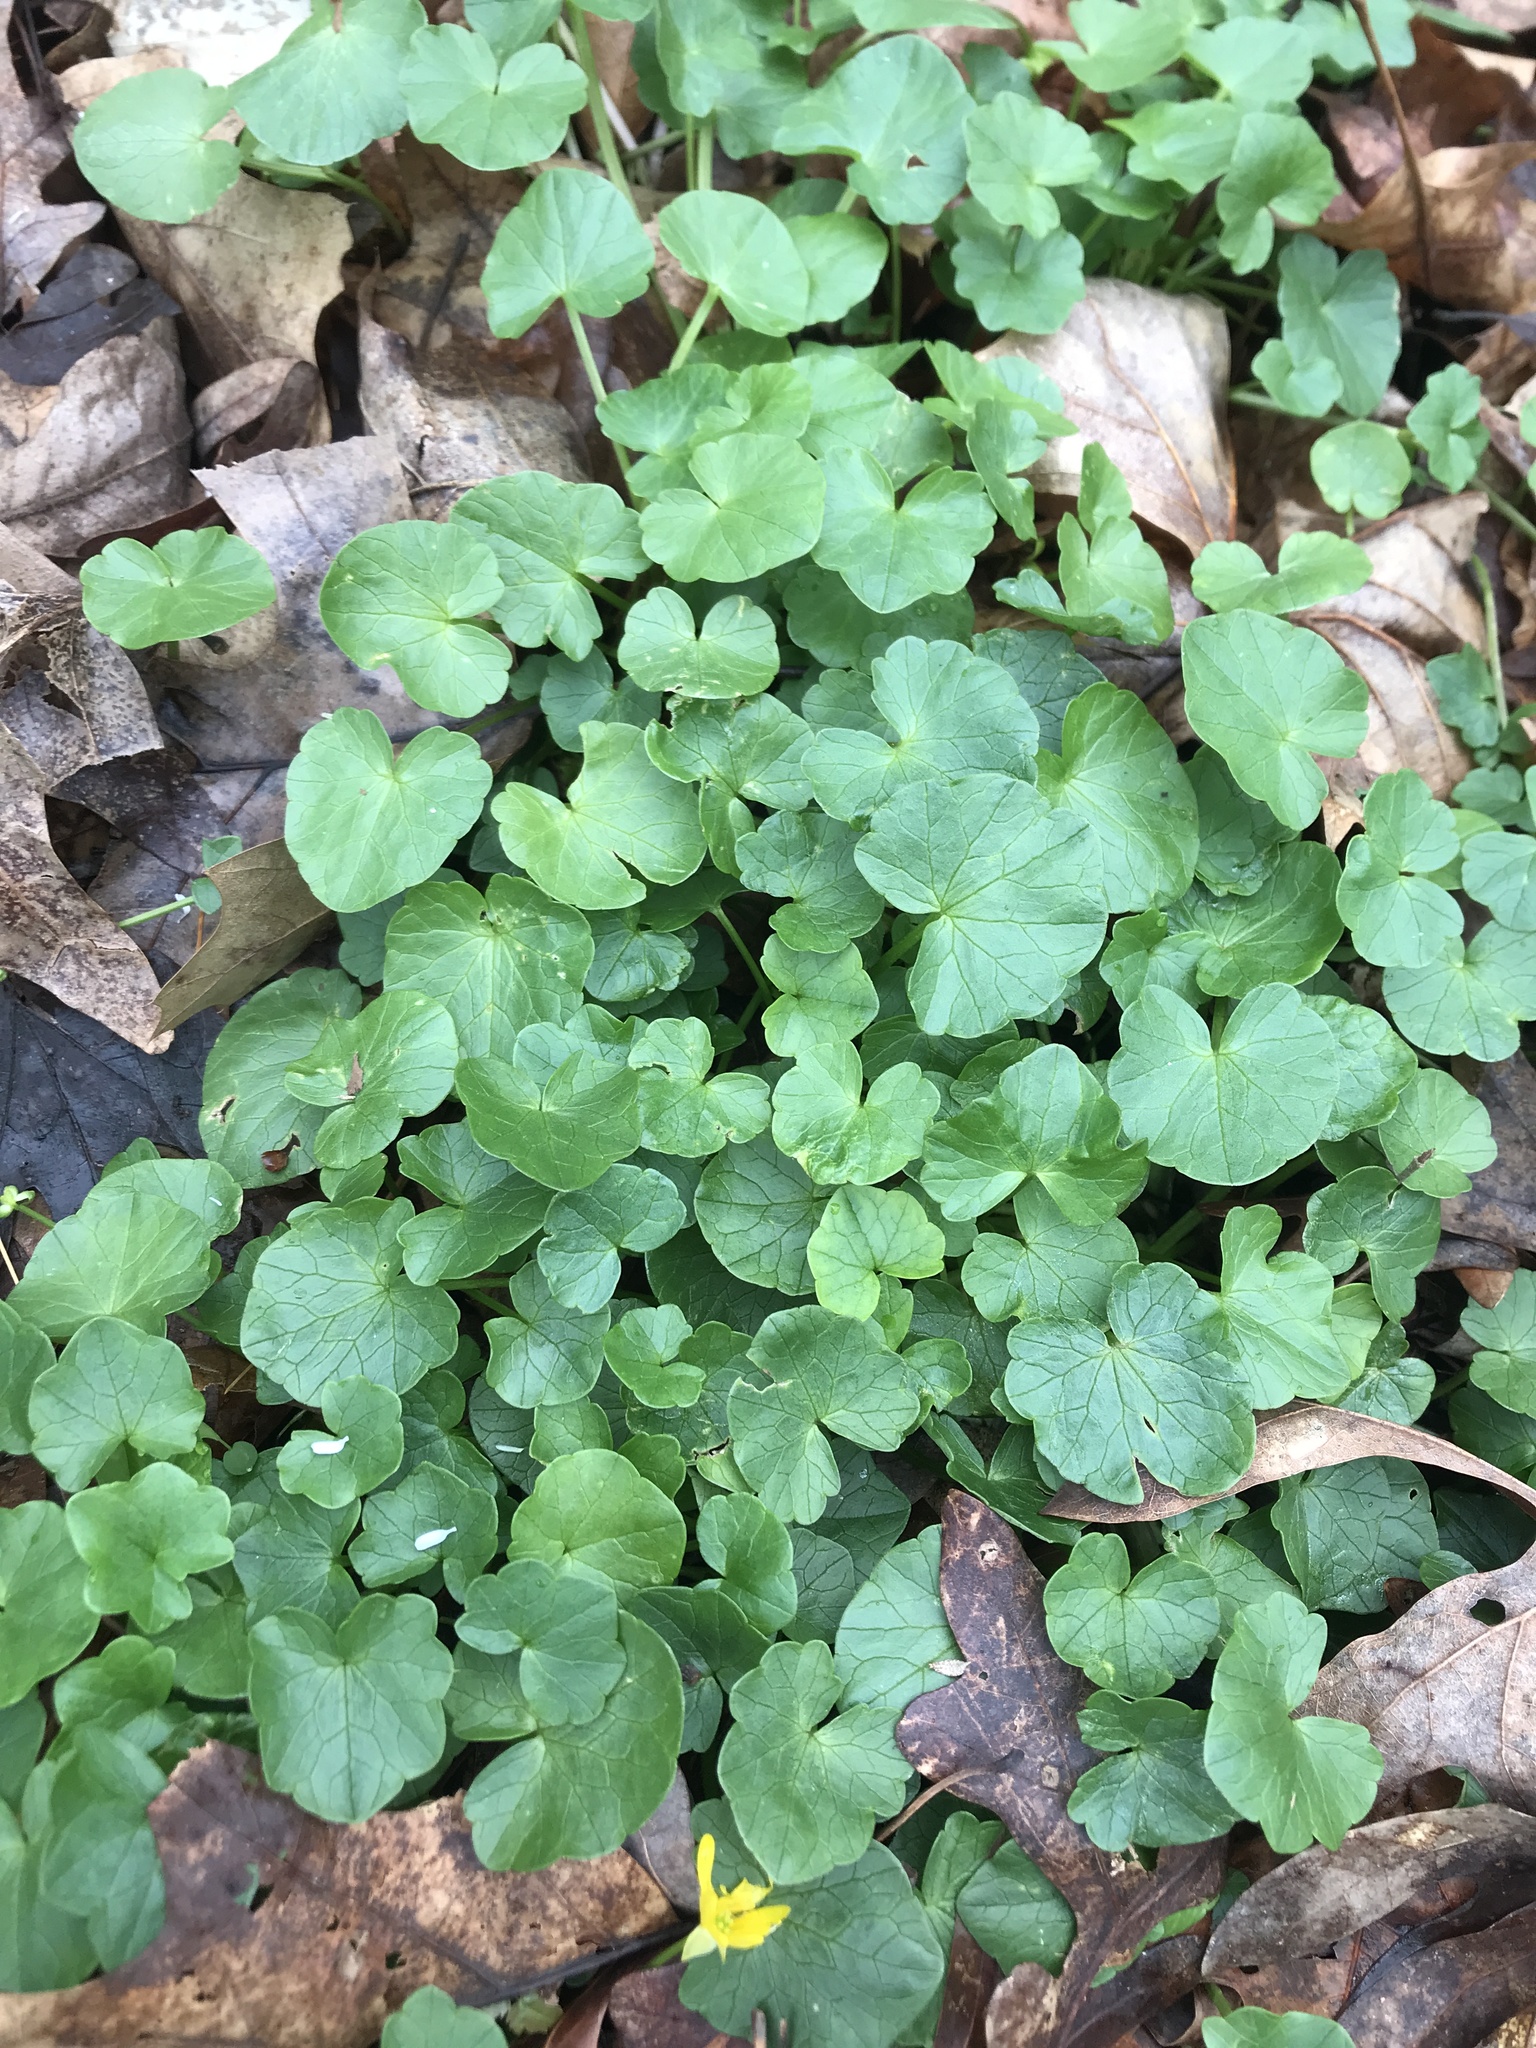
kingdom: Plantae
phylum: Tracheophyta
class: Magnoliopsida
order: Ranunculales
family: Ranunculaceae
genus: Ficaria
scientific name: Ficaria verna
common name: Lesser celandine
